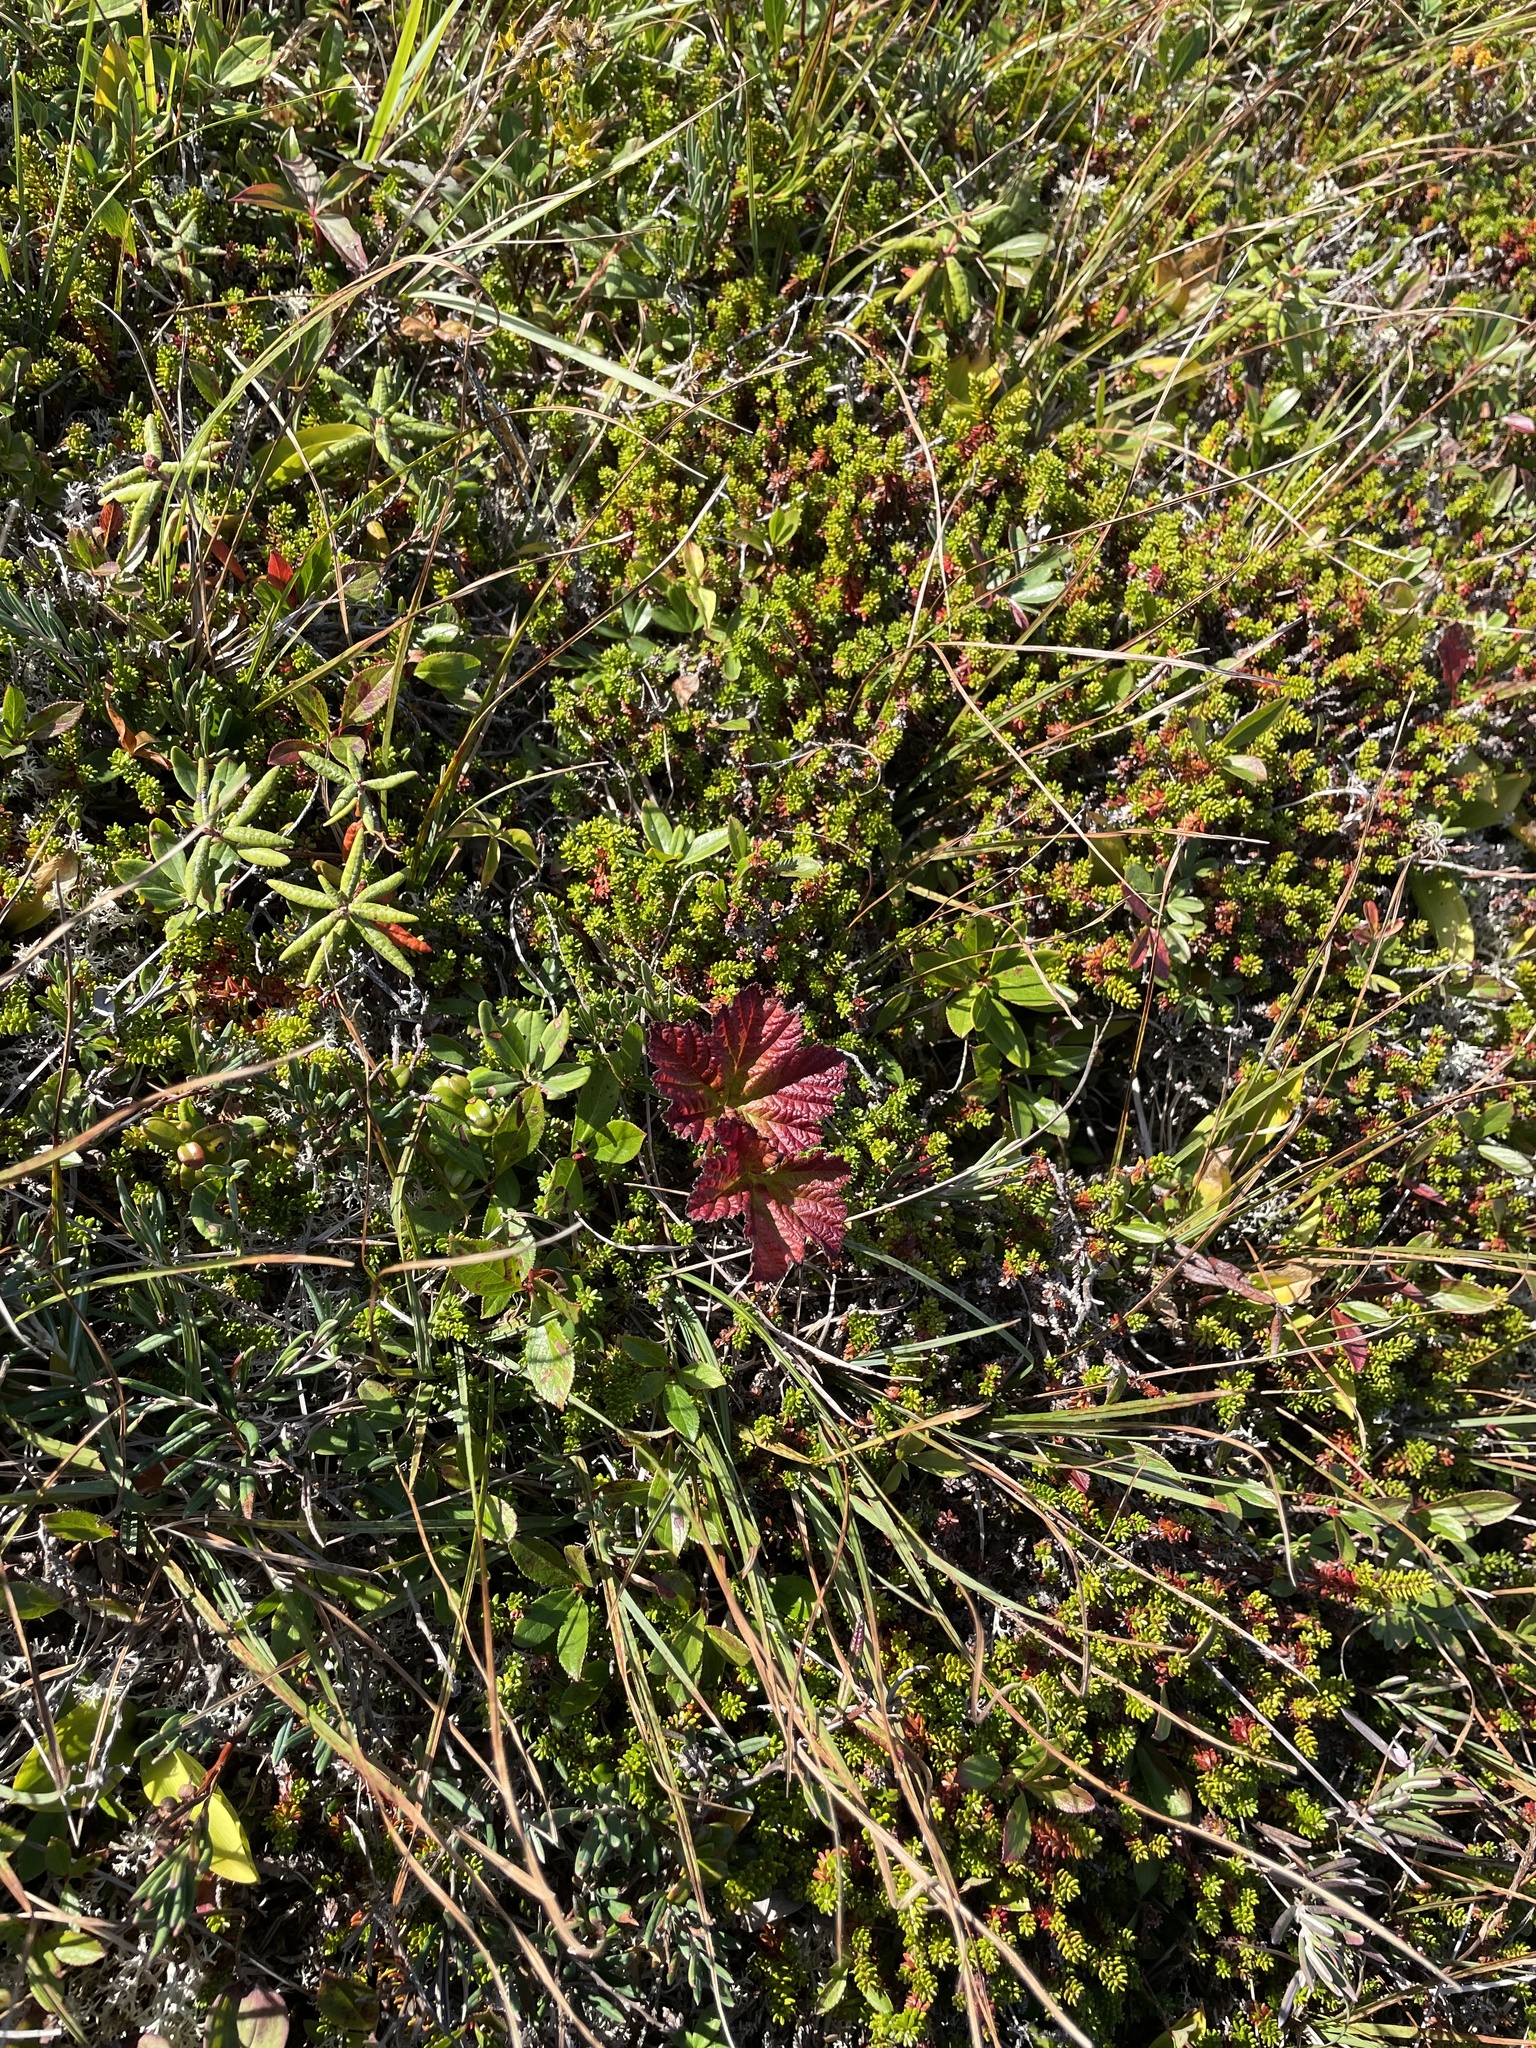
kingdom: Plantae
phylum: Tracheophyta
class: Magnoliopsida
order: Rosales
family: Rosaceae
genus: Rubus
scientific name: Rubus chamaemorus
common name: Cloudberry
